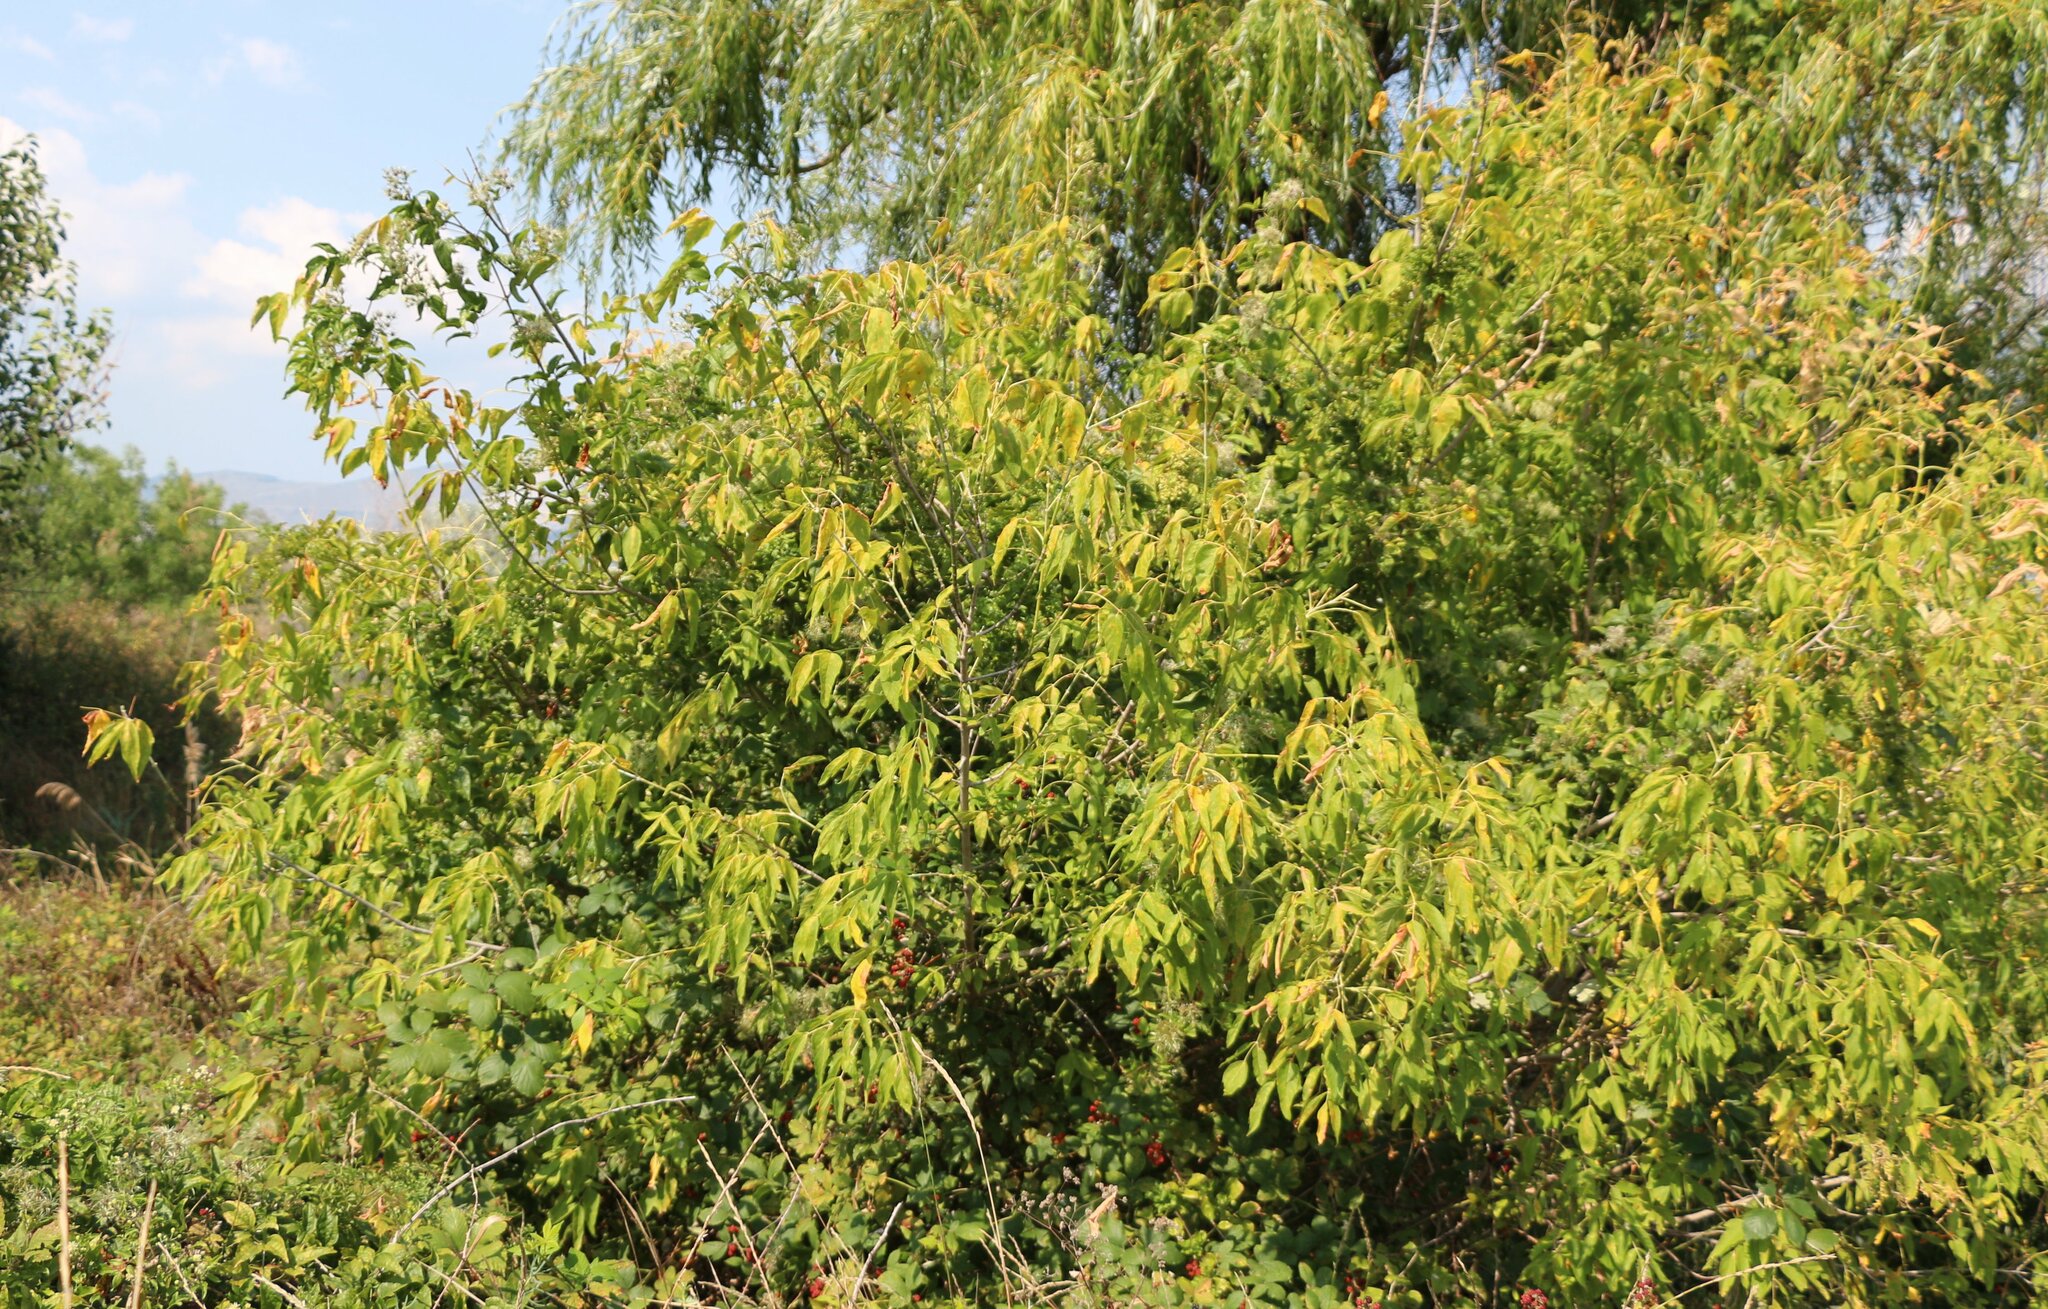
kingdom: Plantae
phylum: Tracheophyta
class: Magnoliopsida
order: Sapindales
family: Sapindaceae
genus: Acer
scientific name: Acer negundo
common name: Ashleaf maple
